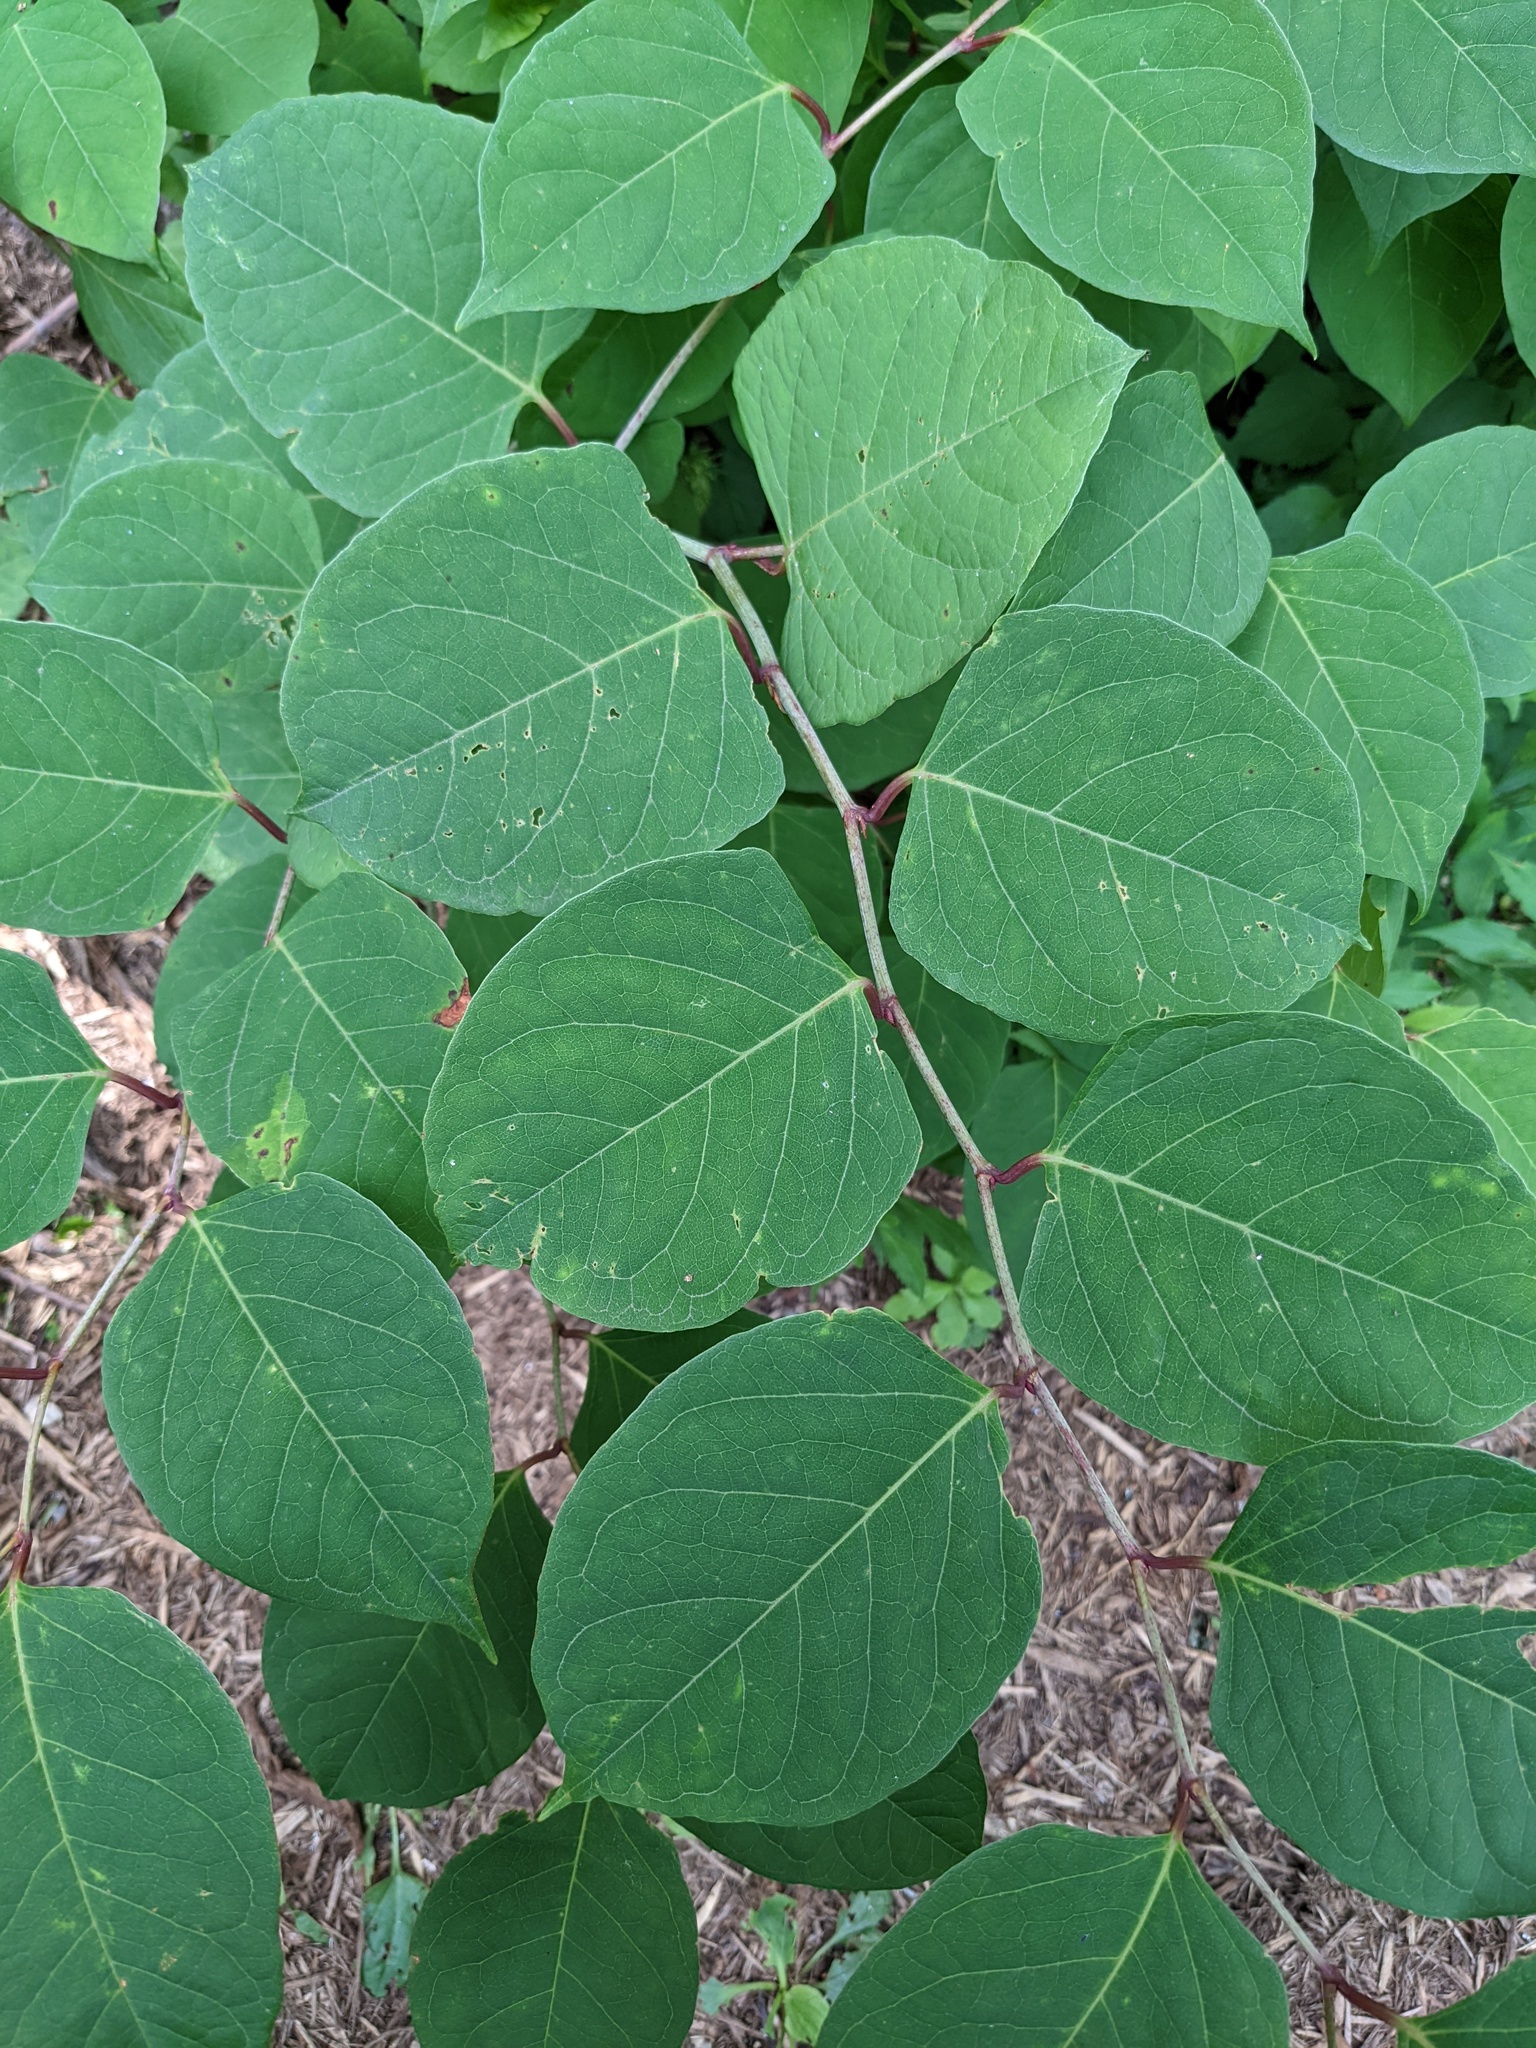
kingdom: Plantae
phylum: Tracheophyta
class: Magnoliopsida
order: Caryophyllales
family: Polygonaceae
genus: Reynoutria
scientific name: Reynoutria japonica
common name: Japanese knotweed
